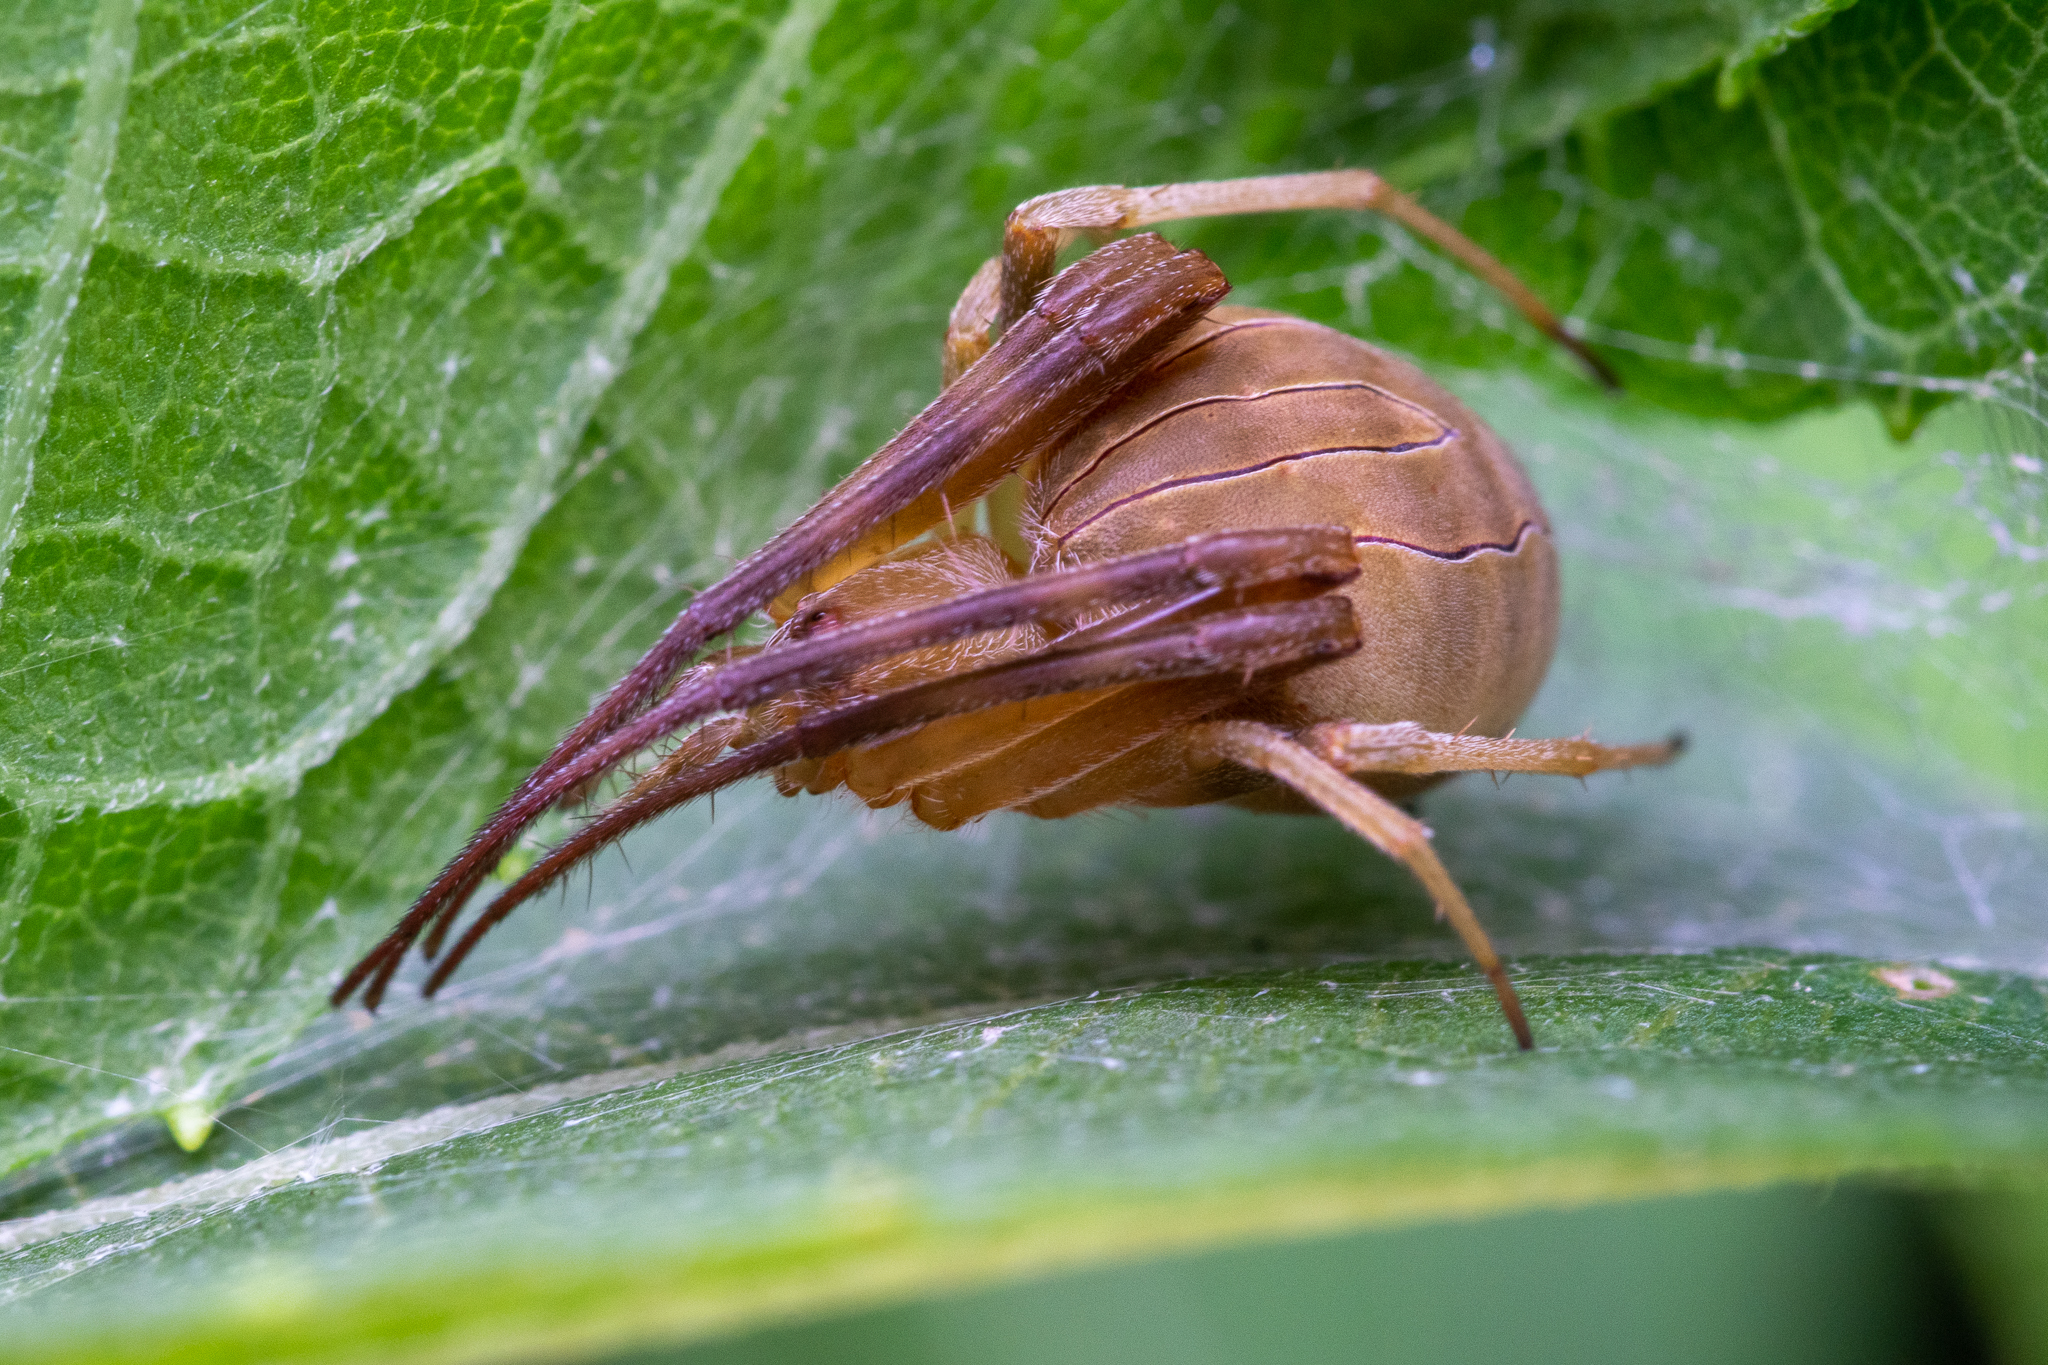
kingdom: Animalia
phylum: Arthropoda
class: Arachnida
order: Araneae
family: Araneidae
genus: Acacesia
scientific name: Acacesia hamata
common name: Orb weavers
